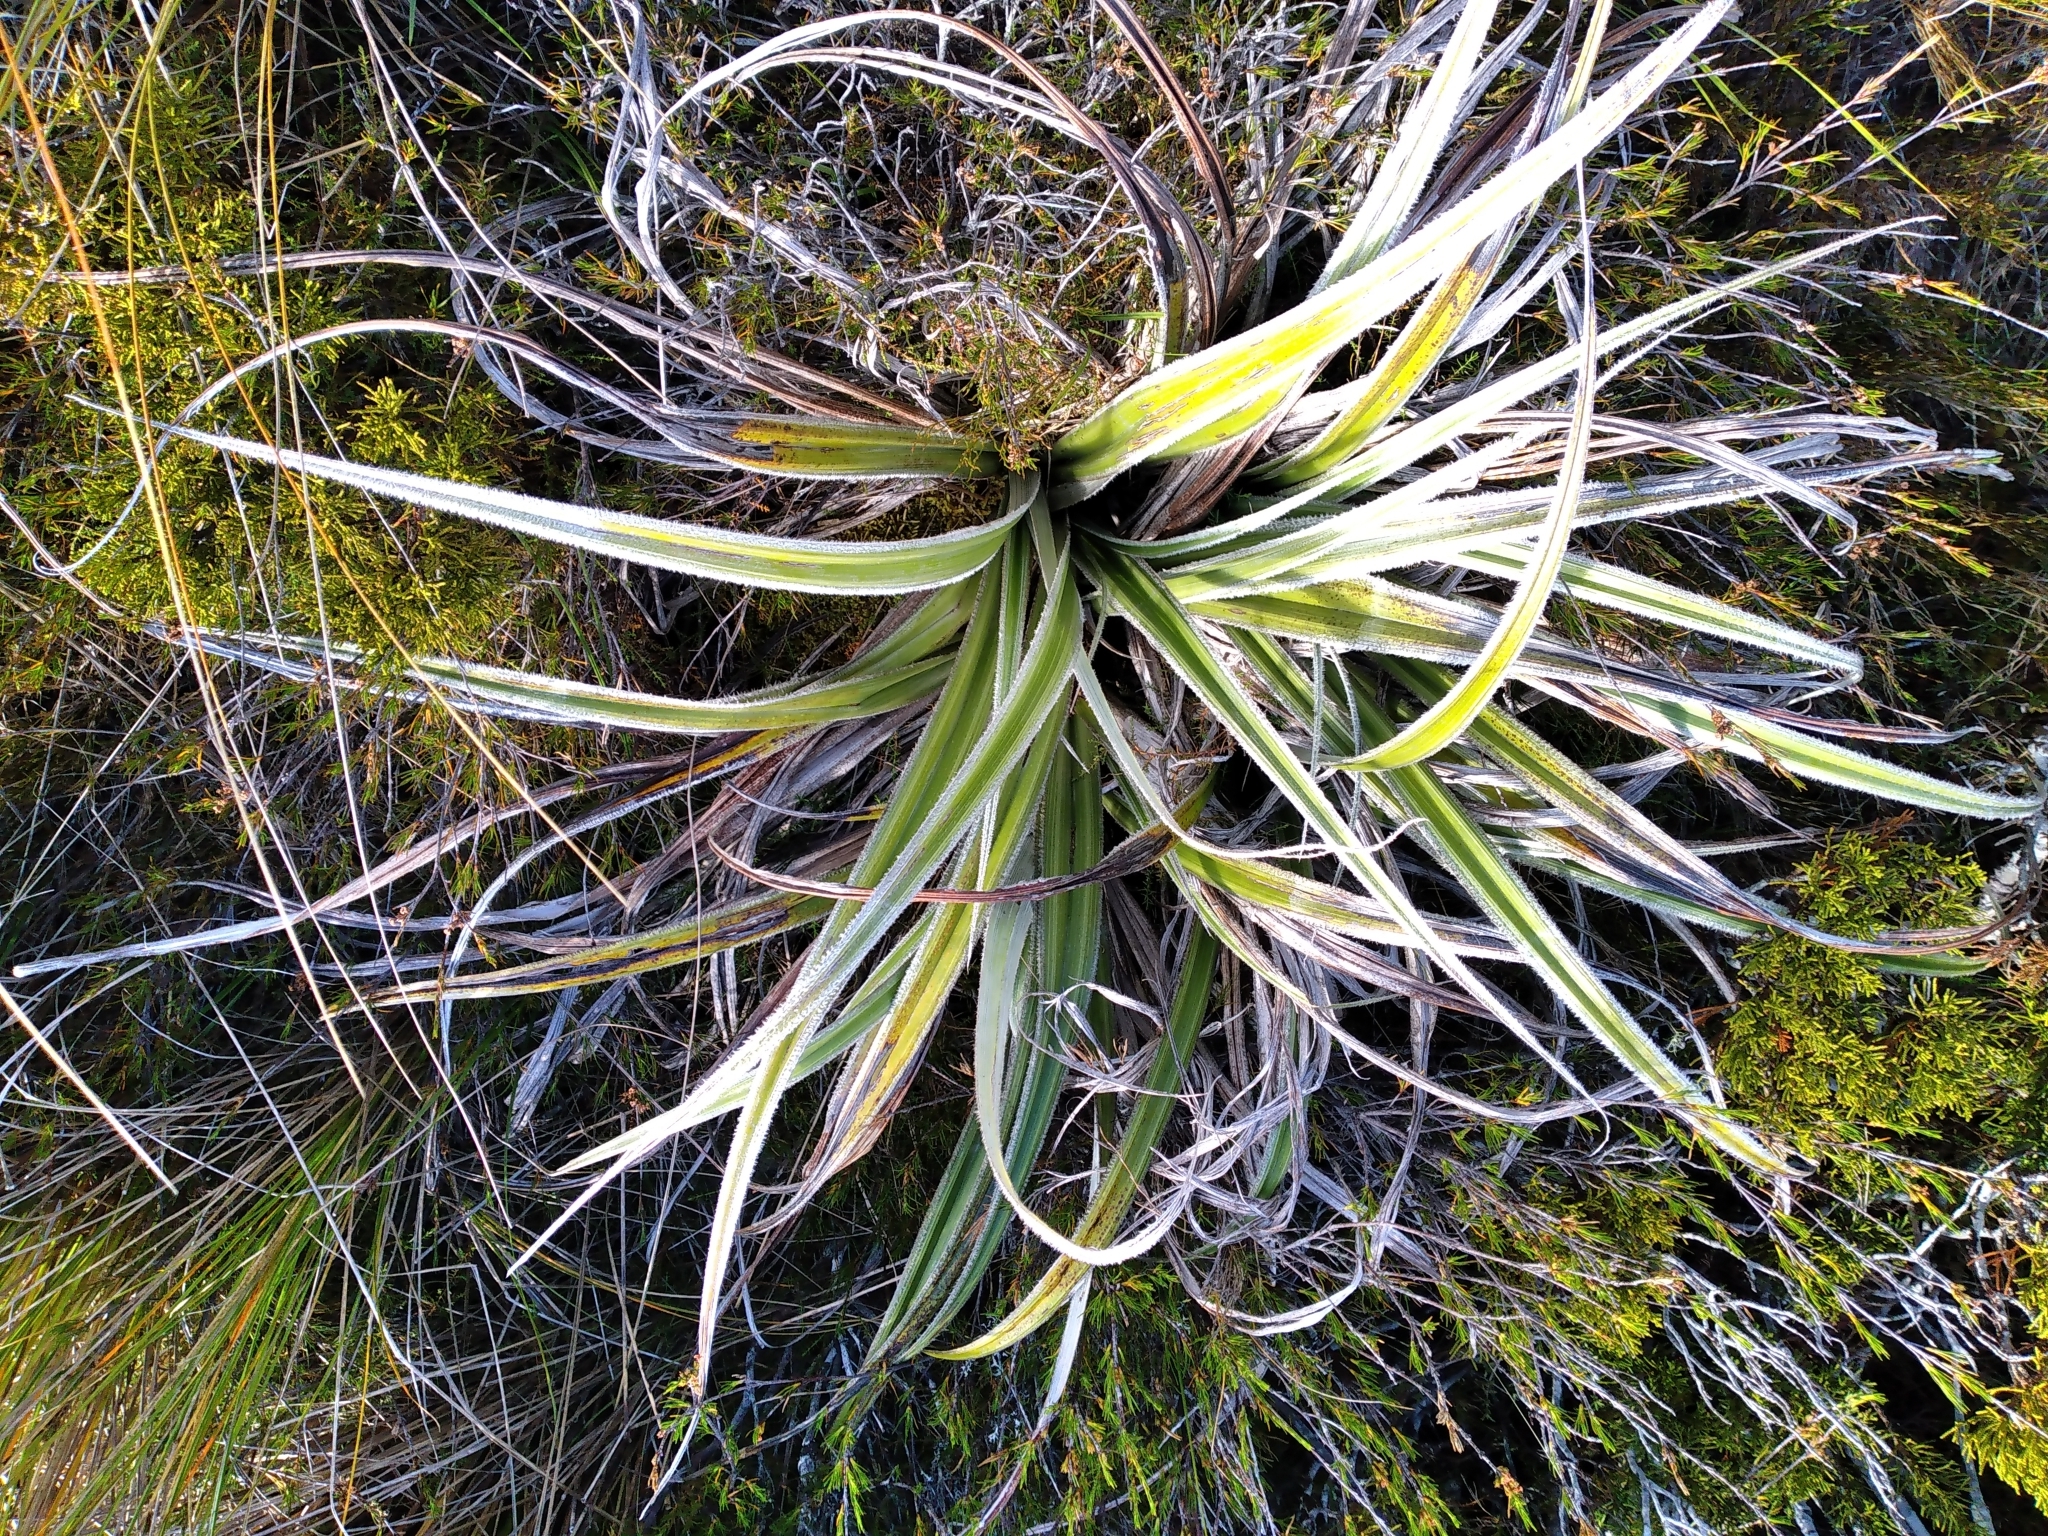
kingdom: Plantae
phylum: Tracheophyta
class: Liliopsida
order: Asparagales
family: Asteliaceae
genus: Astelia
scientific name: Astelia nervosa
